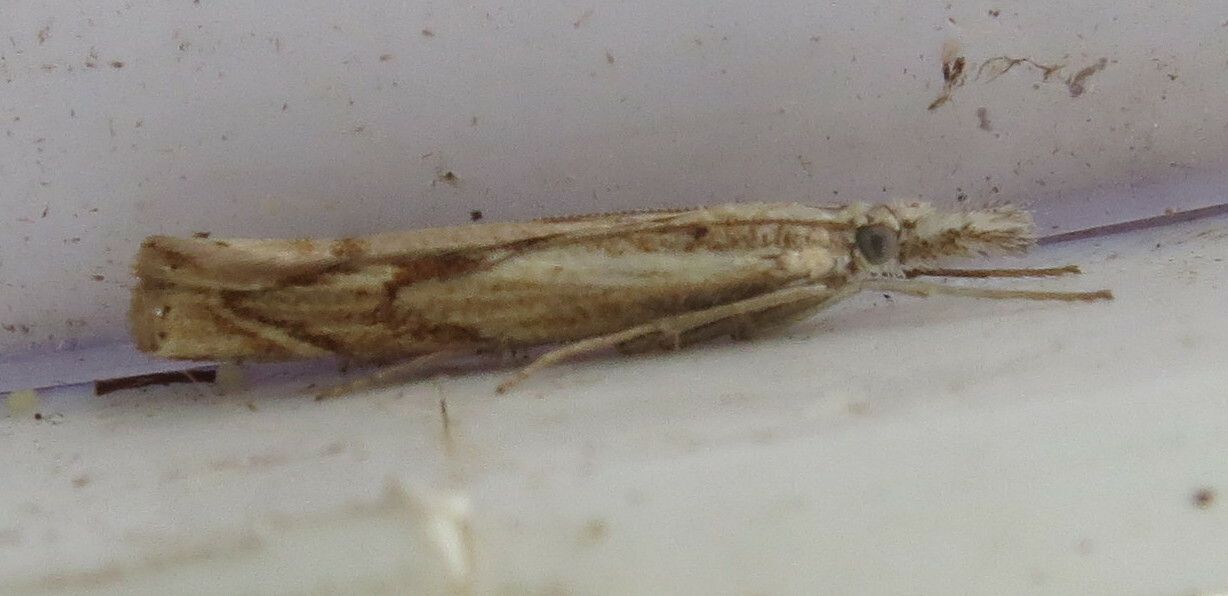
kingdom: Animalia
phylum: Arthropoda
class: Insecta
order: Lepidoptera
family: Crambidae
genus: Agriphila
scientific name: Agriphila geniculea
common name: Elbow-stripe grass-veneer
